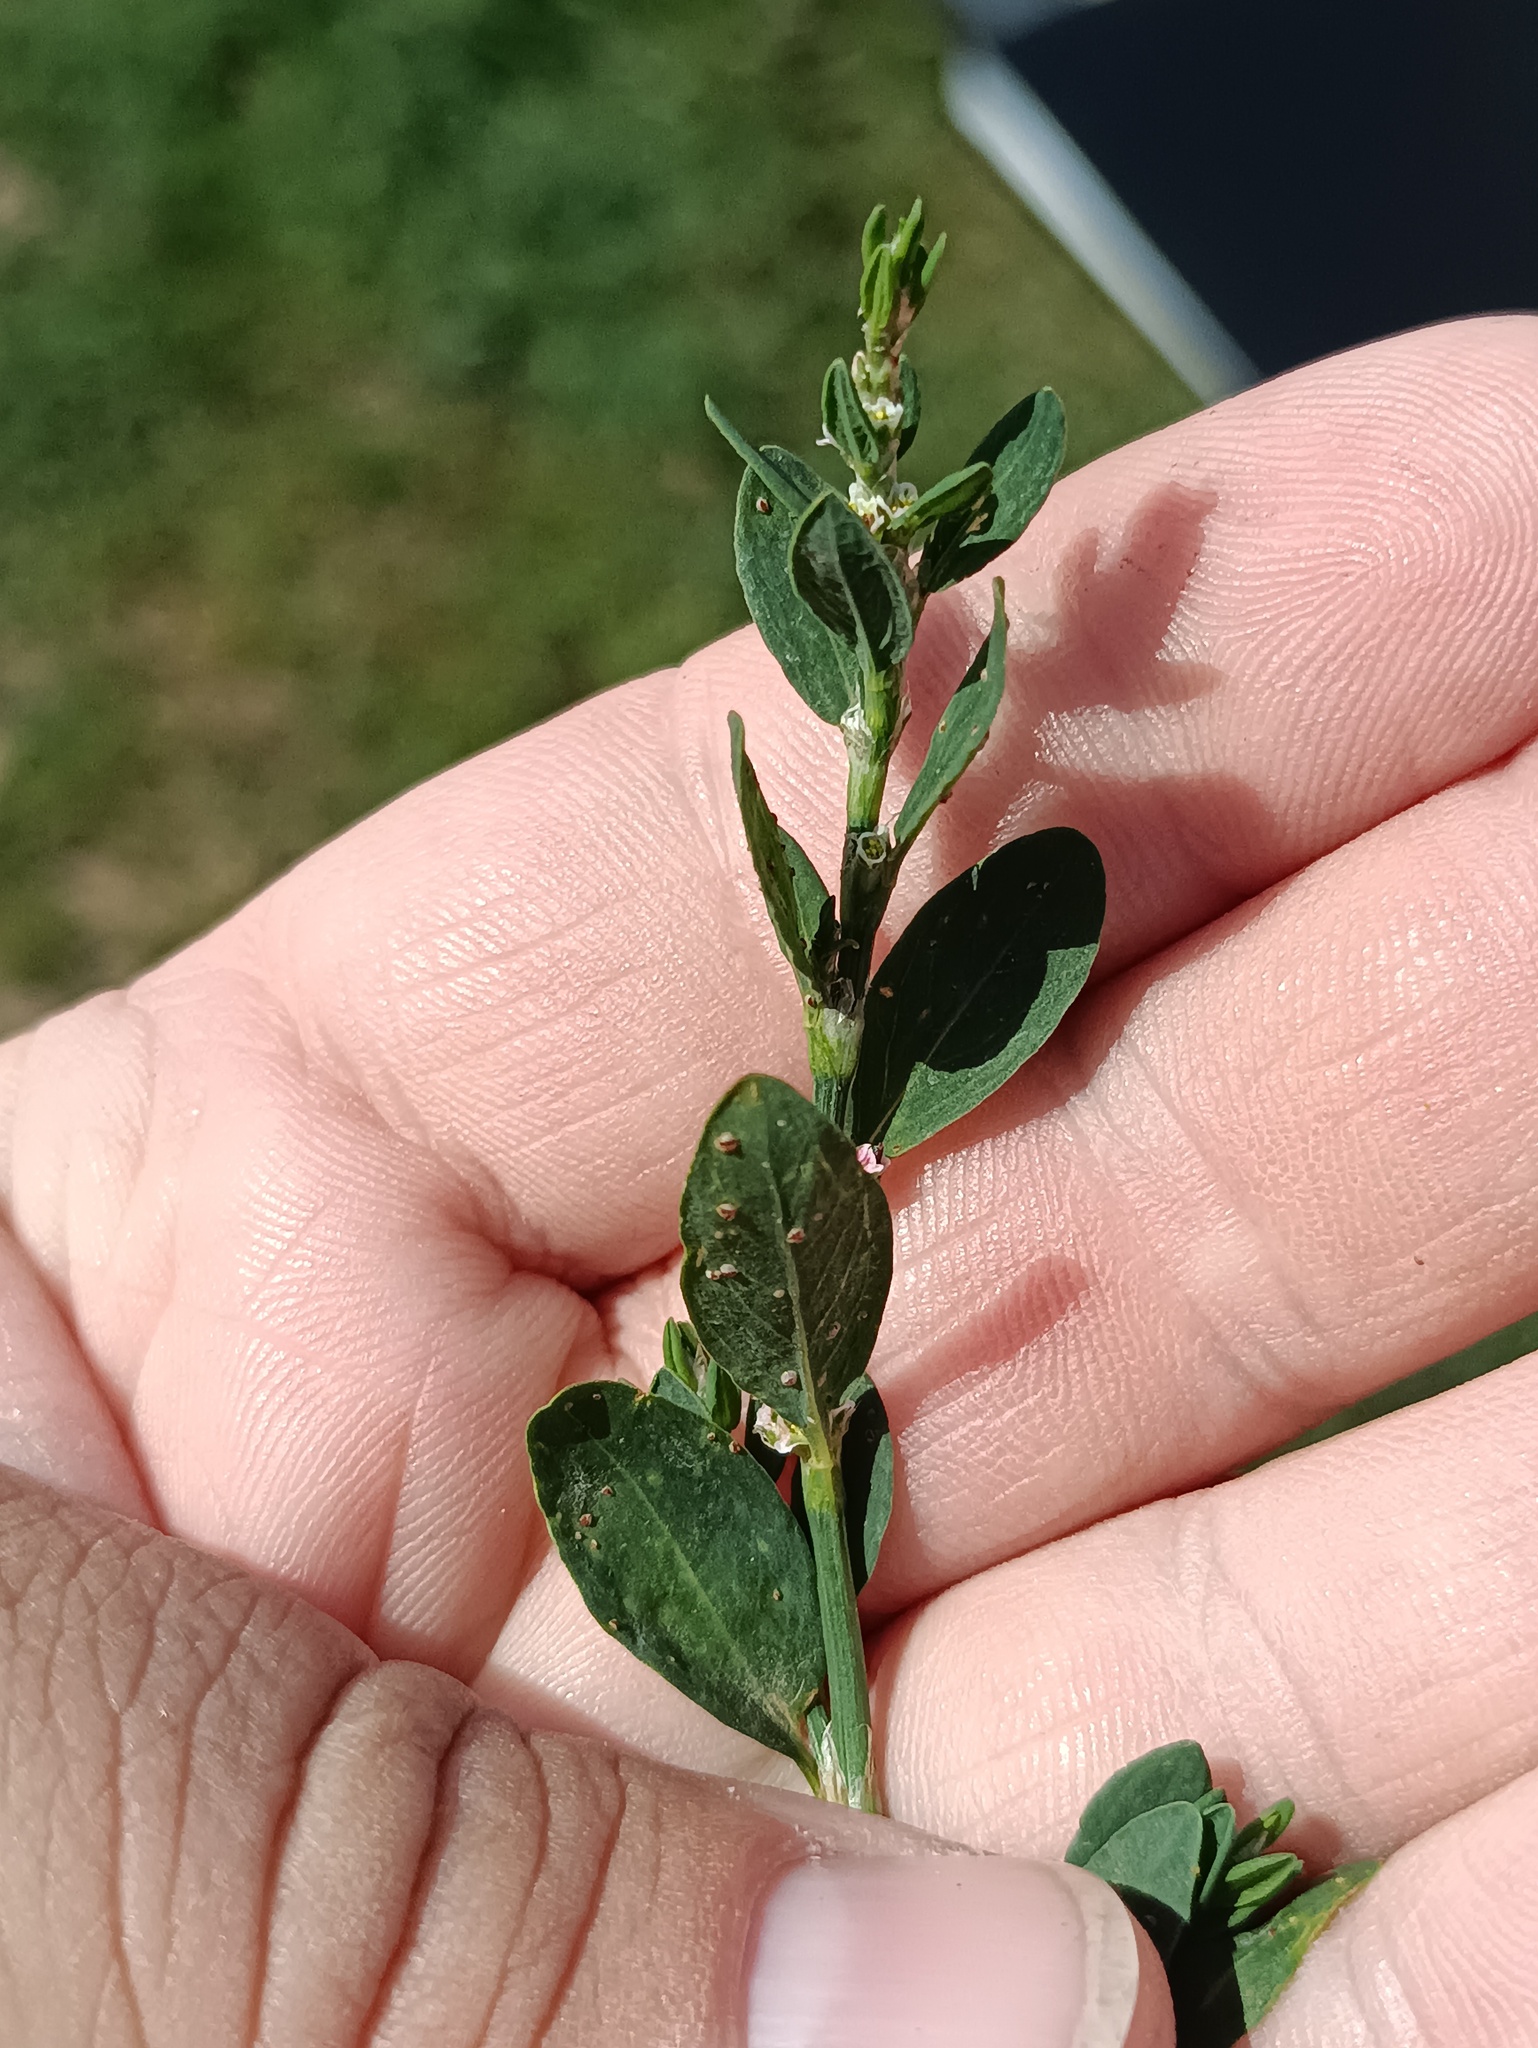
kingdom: Plantae
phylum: Tracheophyta
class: Magnoliopsida
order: Caryophyllales
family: Polygonaceae
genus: Polygonum
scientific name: Polygonum
